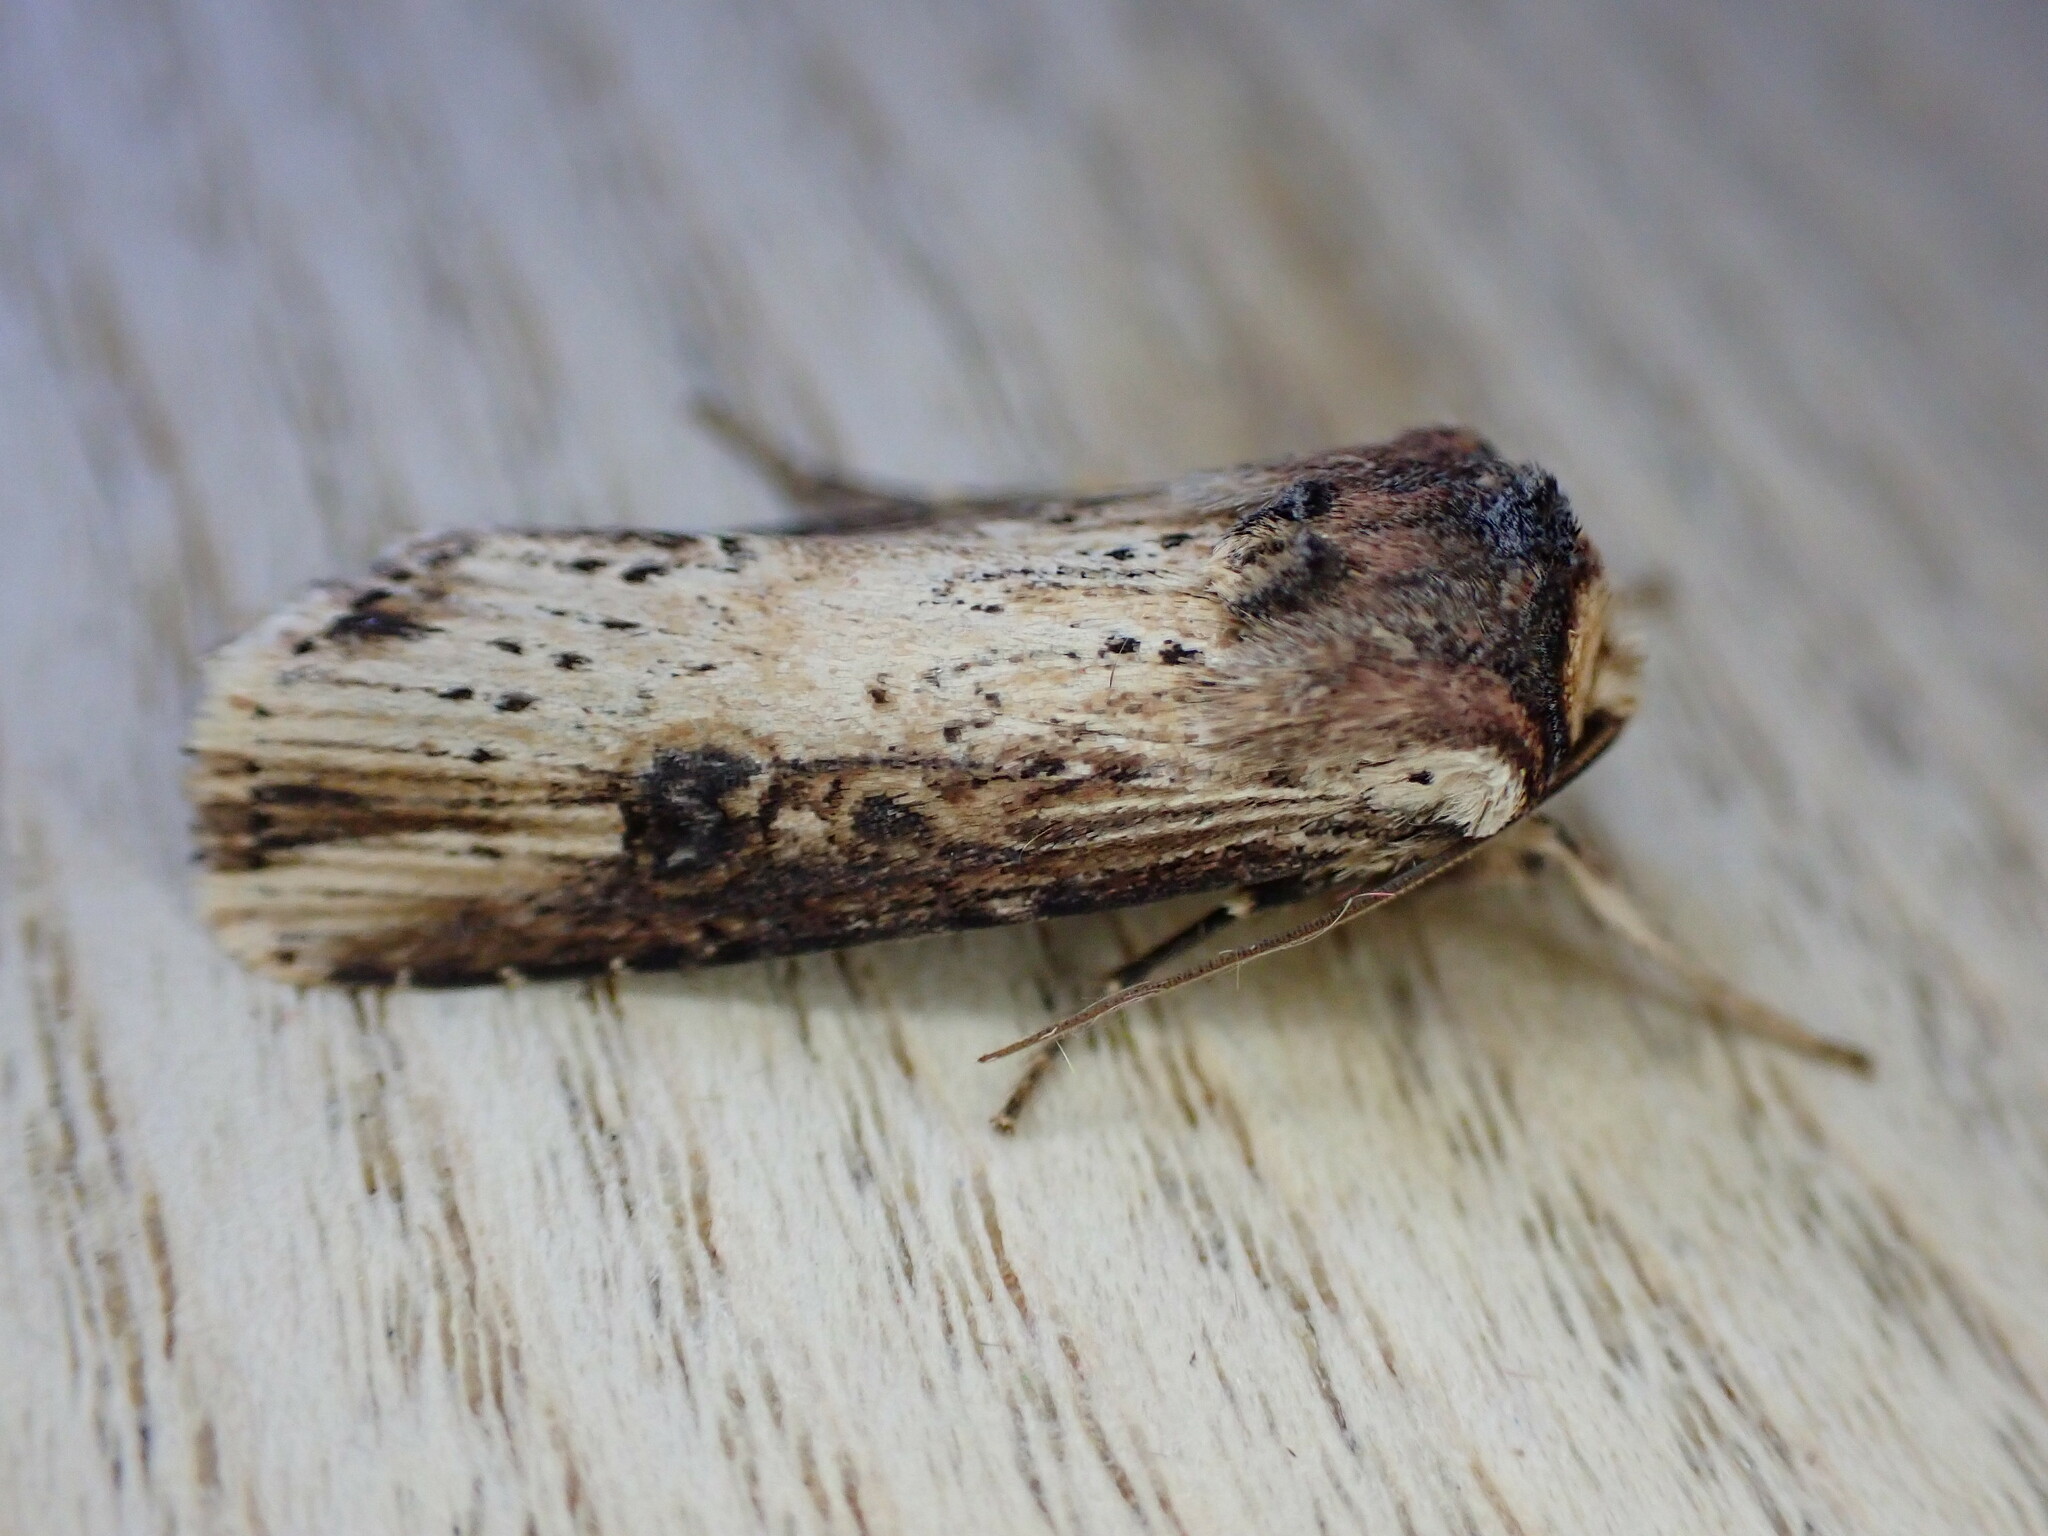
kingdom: Animalia
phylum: Arthropoda
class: Insecta
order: Lepidoptera
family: Noctuidae
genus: Axylia
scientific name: Axylia putris
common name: Flame
